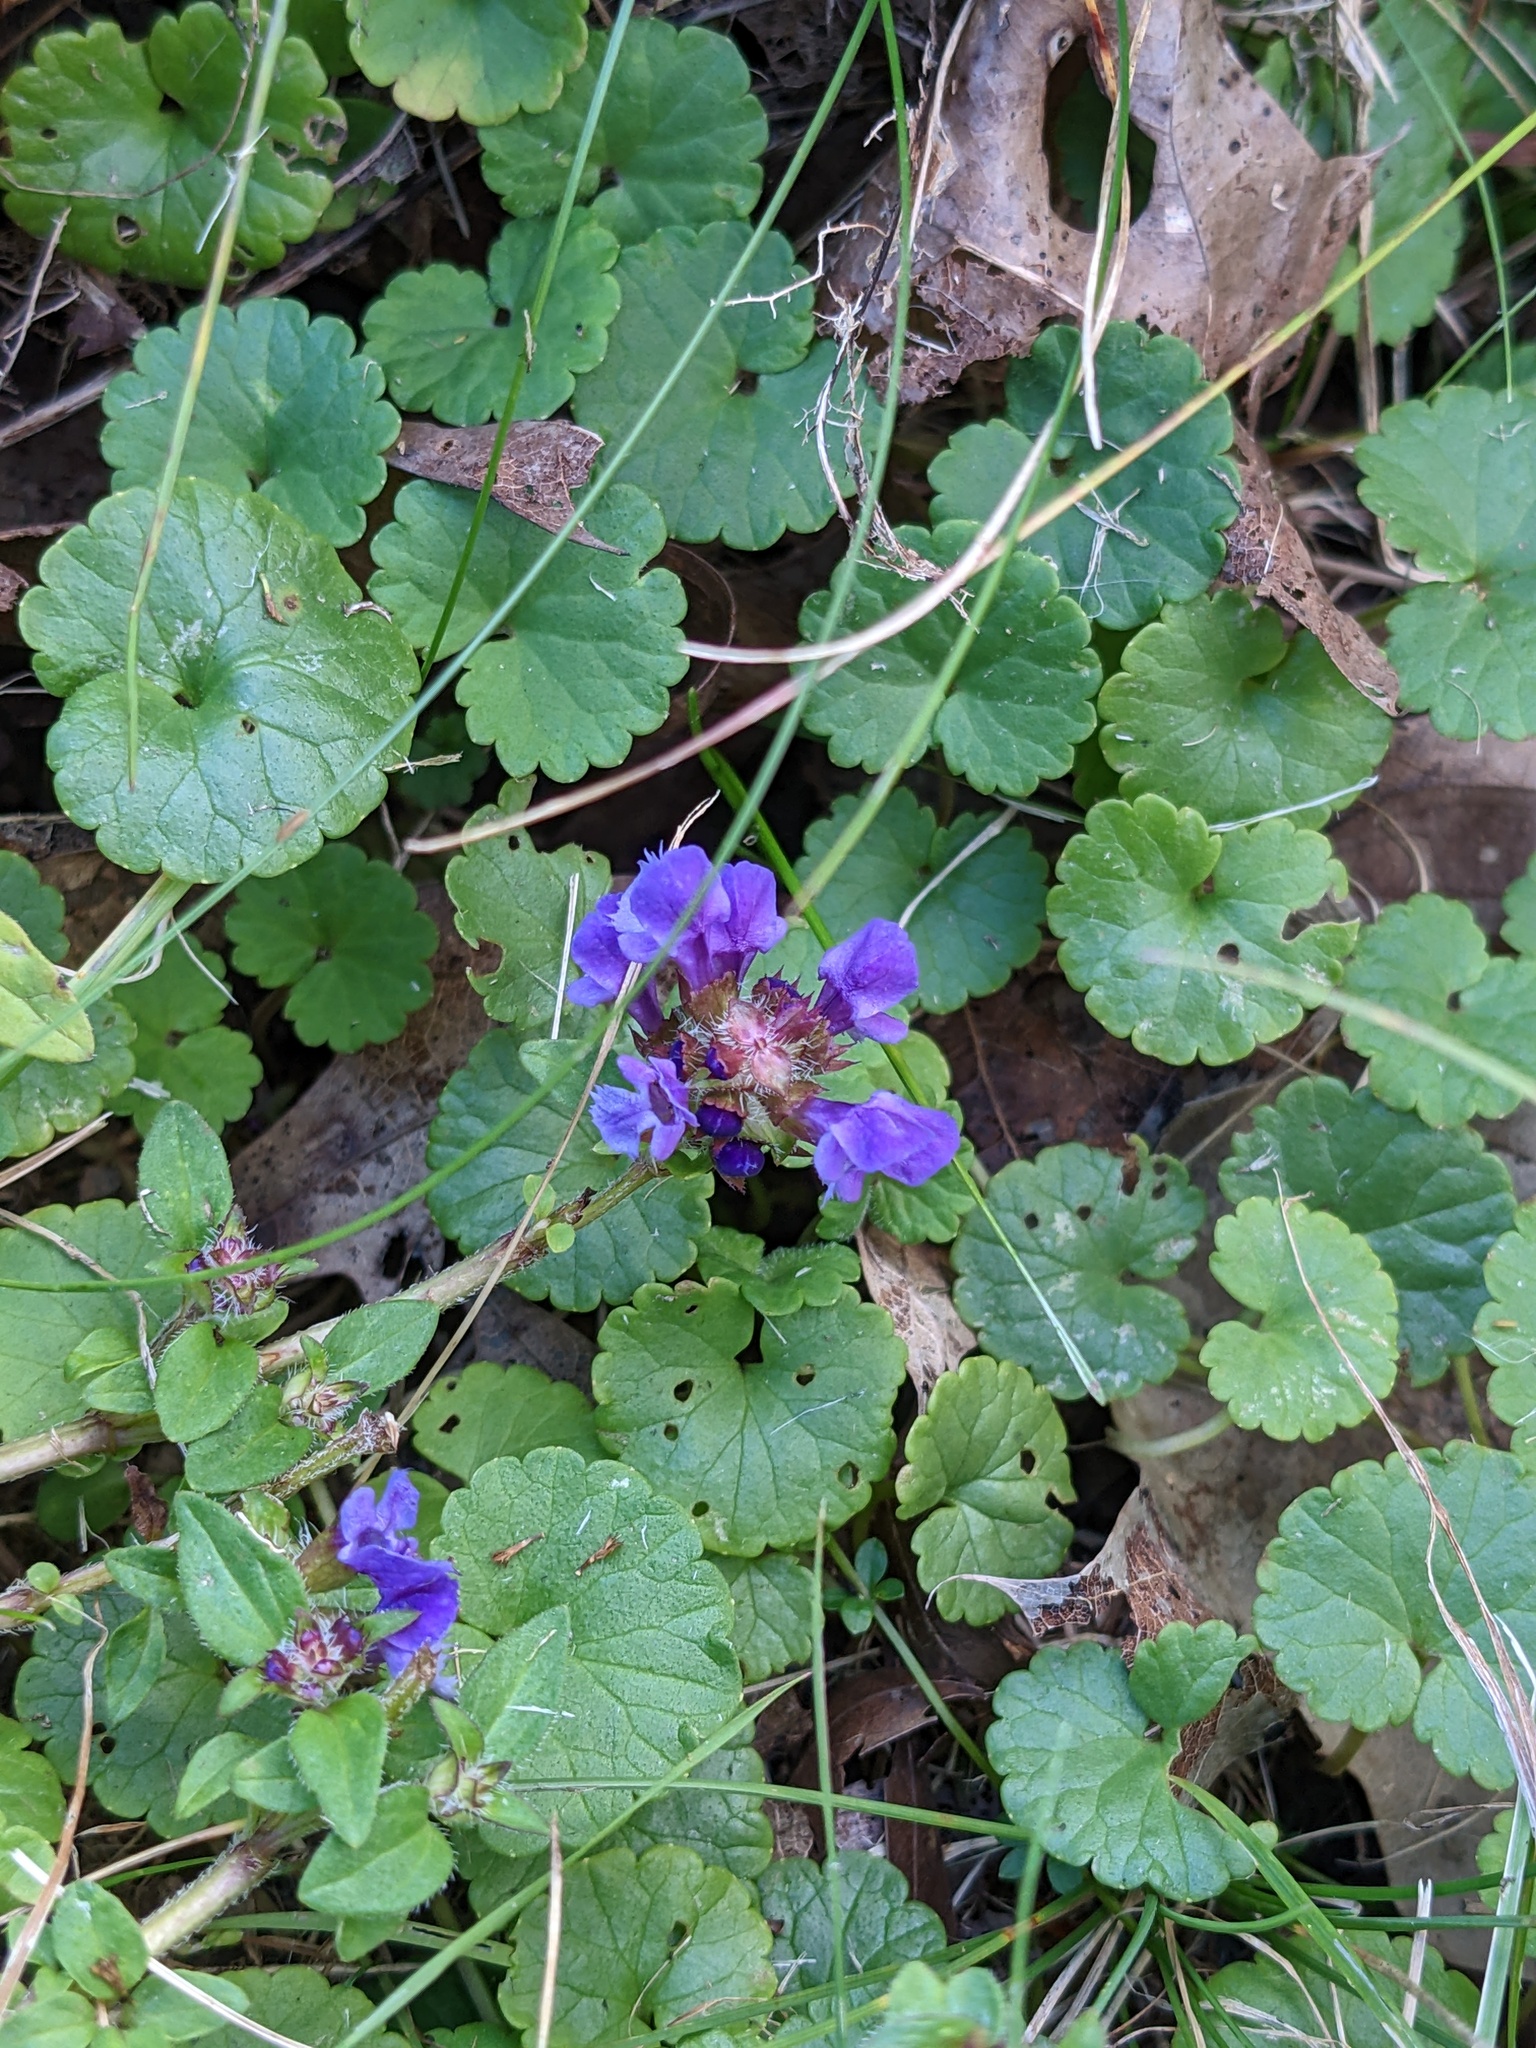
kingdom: Plantae
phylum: Tracheophyta
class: Magnoliopsida
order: Lamiales
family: Lamiaceae
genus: Glechoma
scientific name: Glechoma hederacea
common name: Ground ivy
